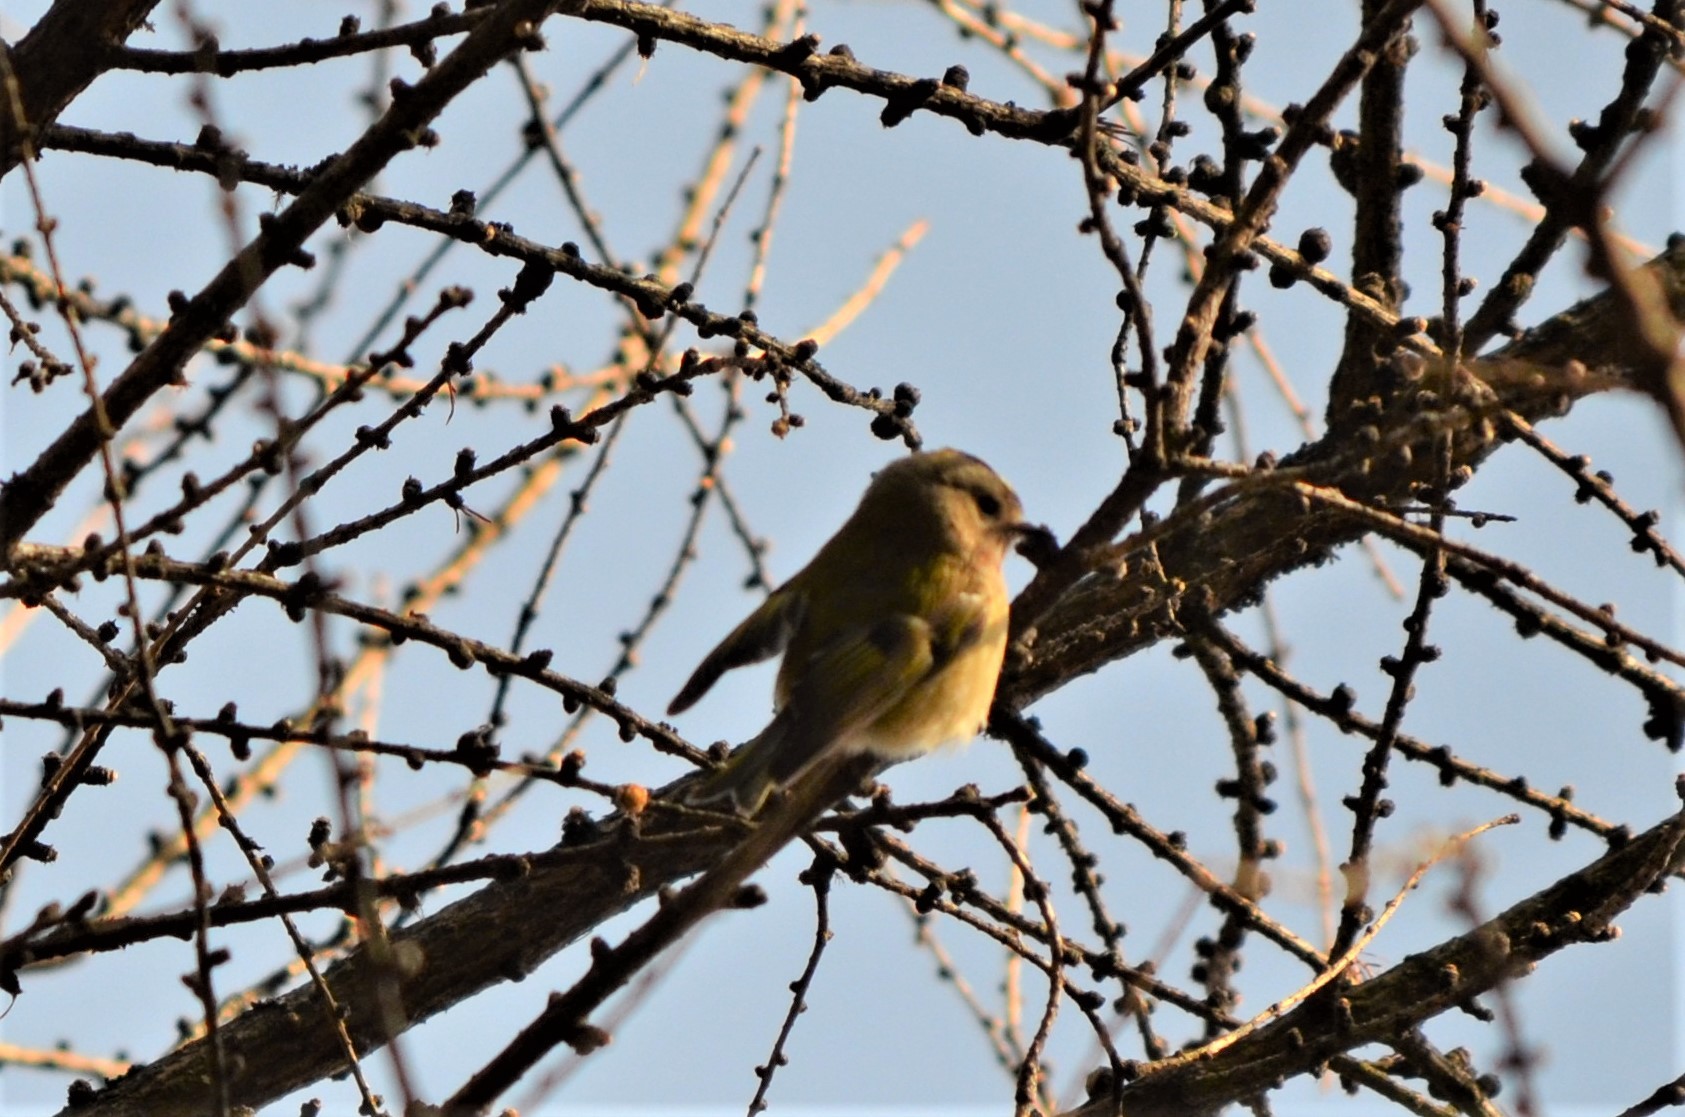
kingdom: Animalia
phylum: Chordata
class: Aves
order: Passeriformes
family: Regulidae
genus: Regulus
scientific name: Regulus regulus
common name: Goldcrest
